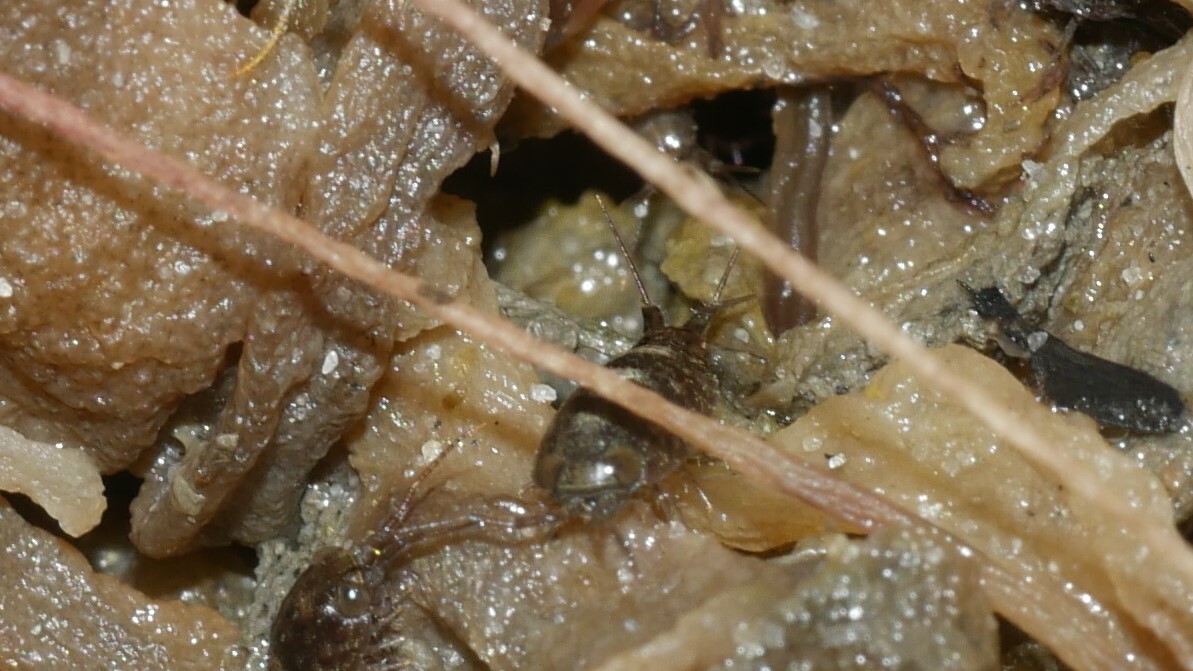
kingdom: Animalia
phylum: Arthropoda
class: Malacostraca
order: Isopoda
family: Ligiidae
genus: Ligia
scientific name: Ligia exotica
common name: Wharf roach
